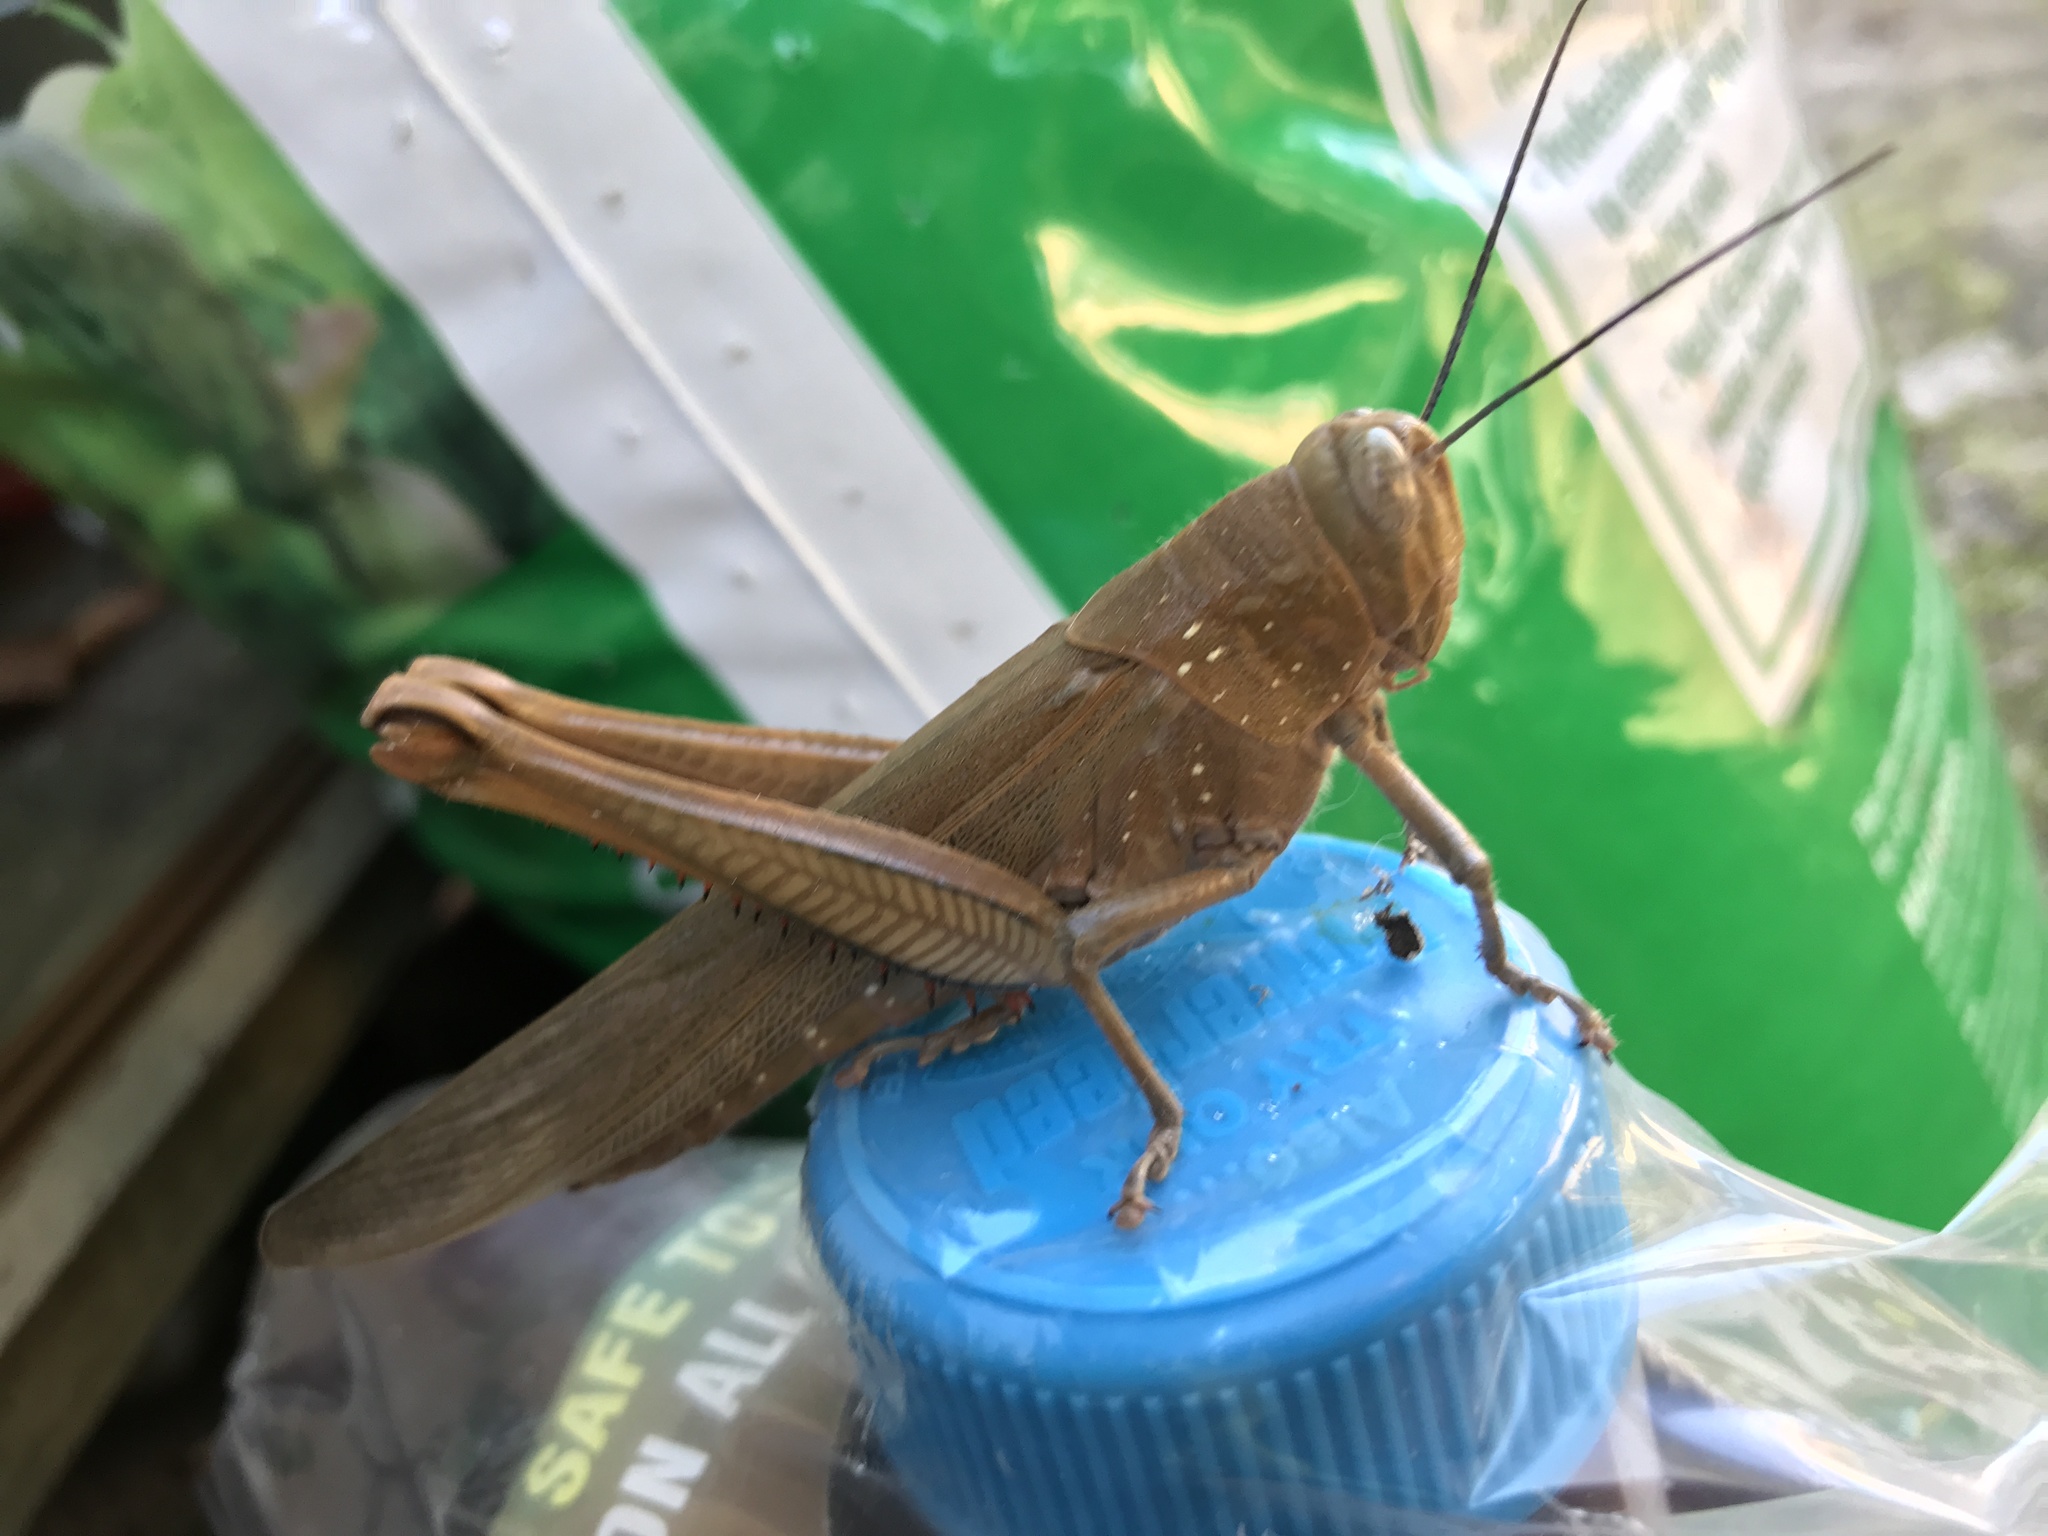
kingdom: Animalia
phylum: Arthropoda
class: Insecta
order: Orthoptera
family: Acrididae
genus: Valanga
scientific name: Valanga irregularis
